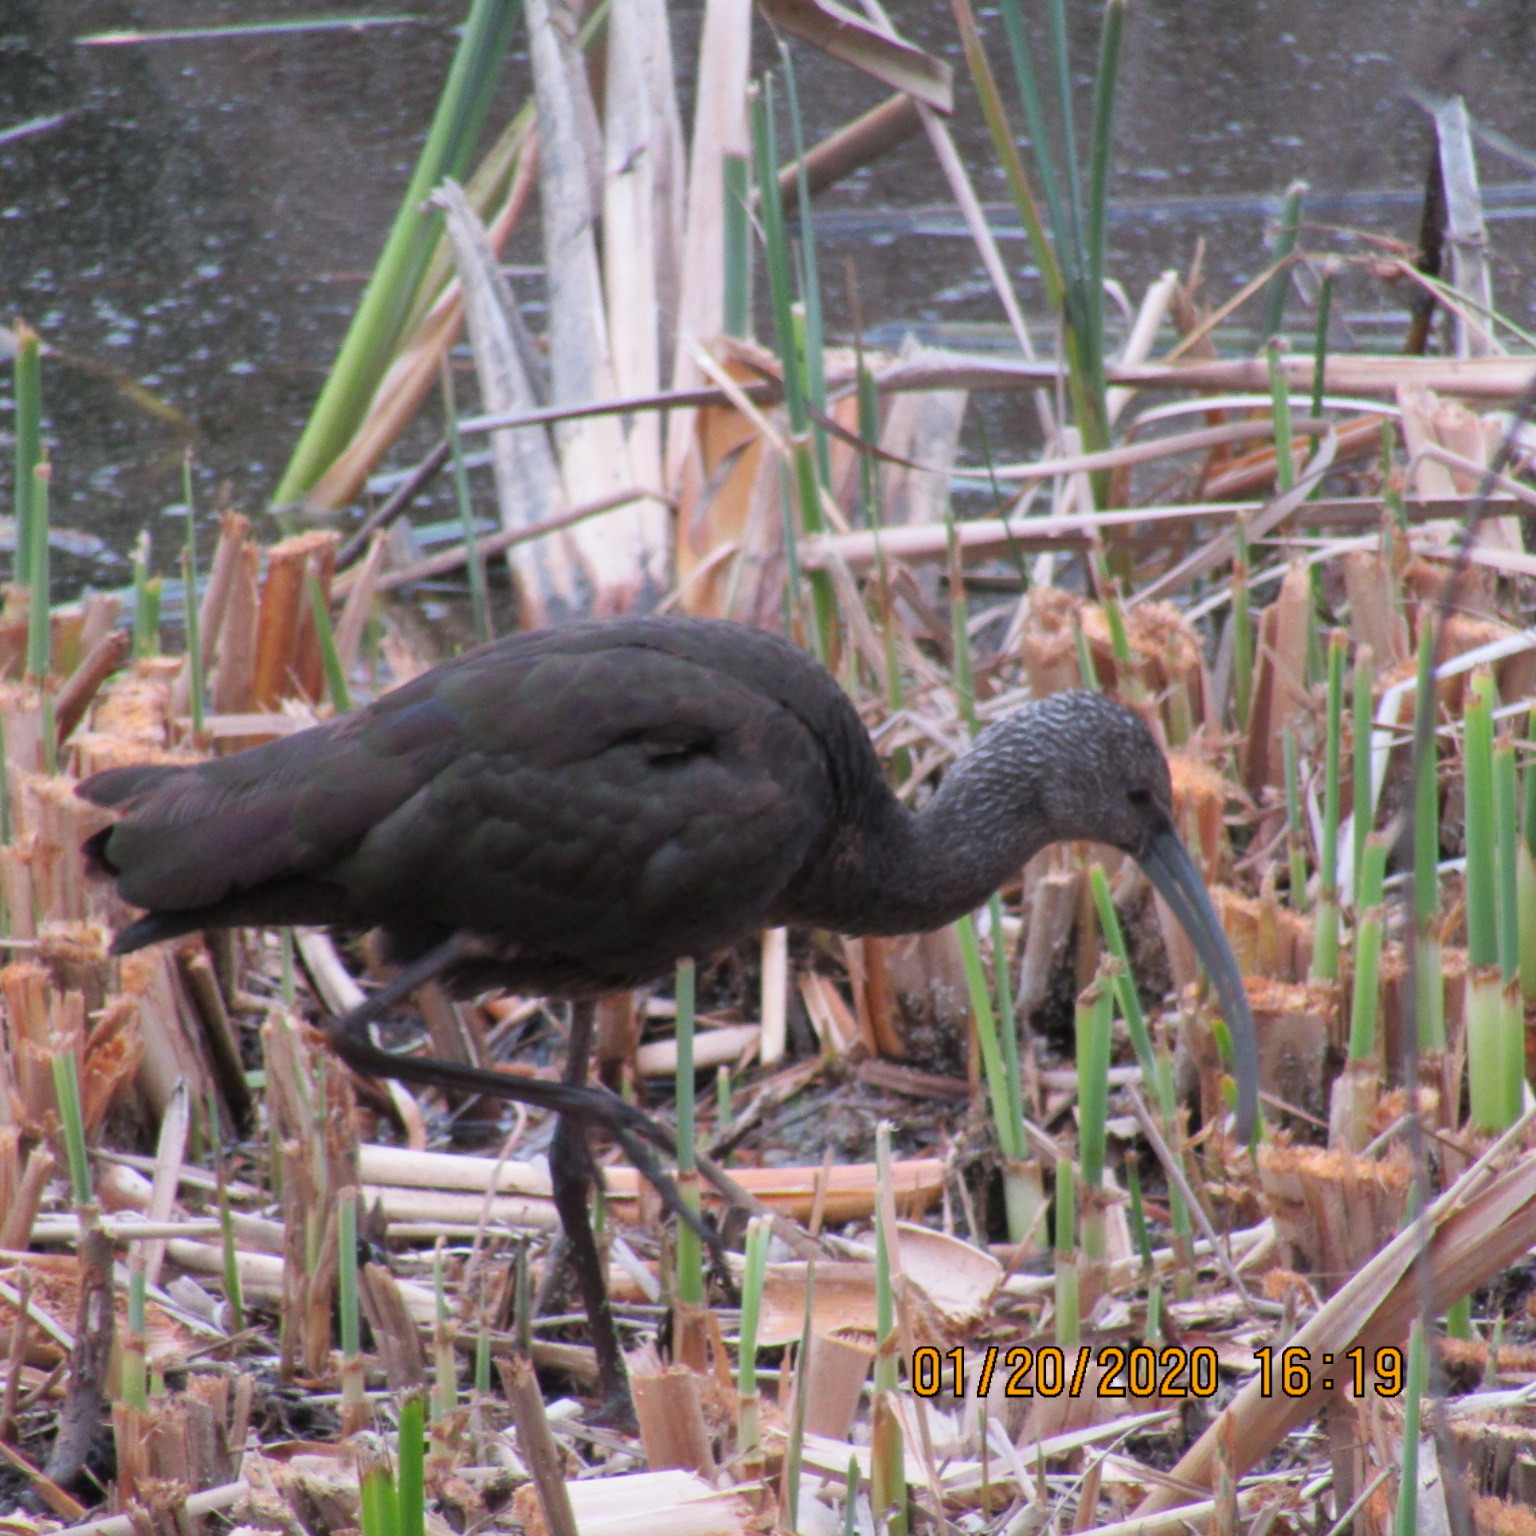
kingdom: Animalia
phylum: Chordata
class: Aves
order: Pelecaniformes
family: Threskiornithidae
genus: Plegadis
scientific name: Plegadis chihi
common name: White-faced ibis
